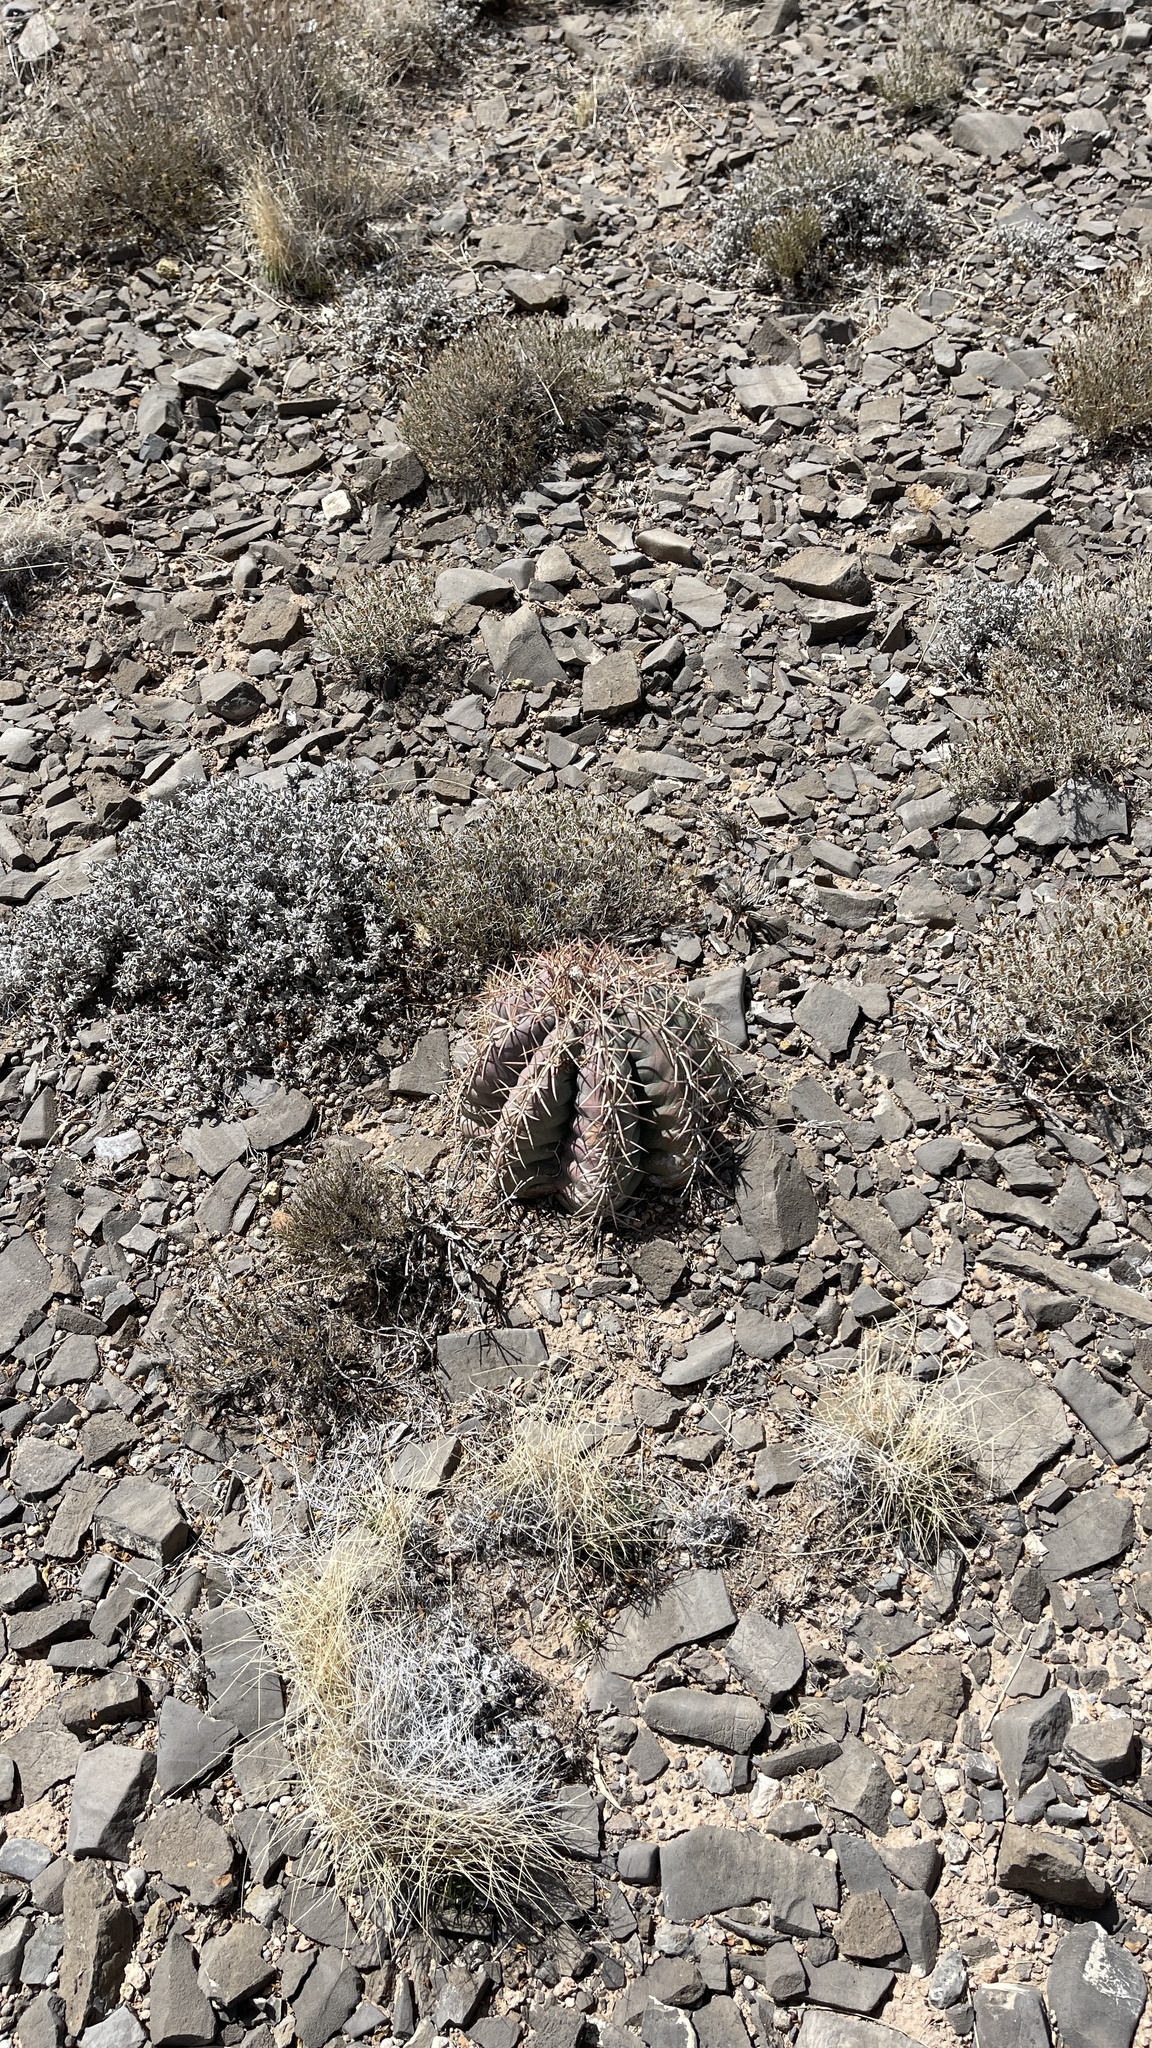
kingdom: Plantae
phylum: Tracheophyta
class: Magnoliopsida
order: Caryophyllales
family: Cactaceae
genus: Echinocactus
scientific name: Echinocactus horizonthalonius
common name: Devilshead
